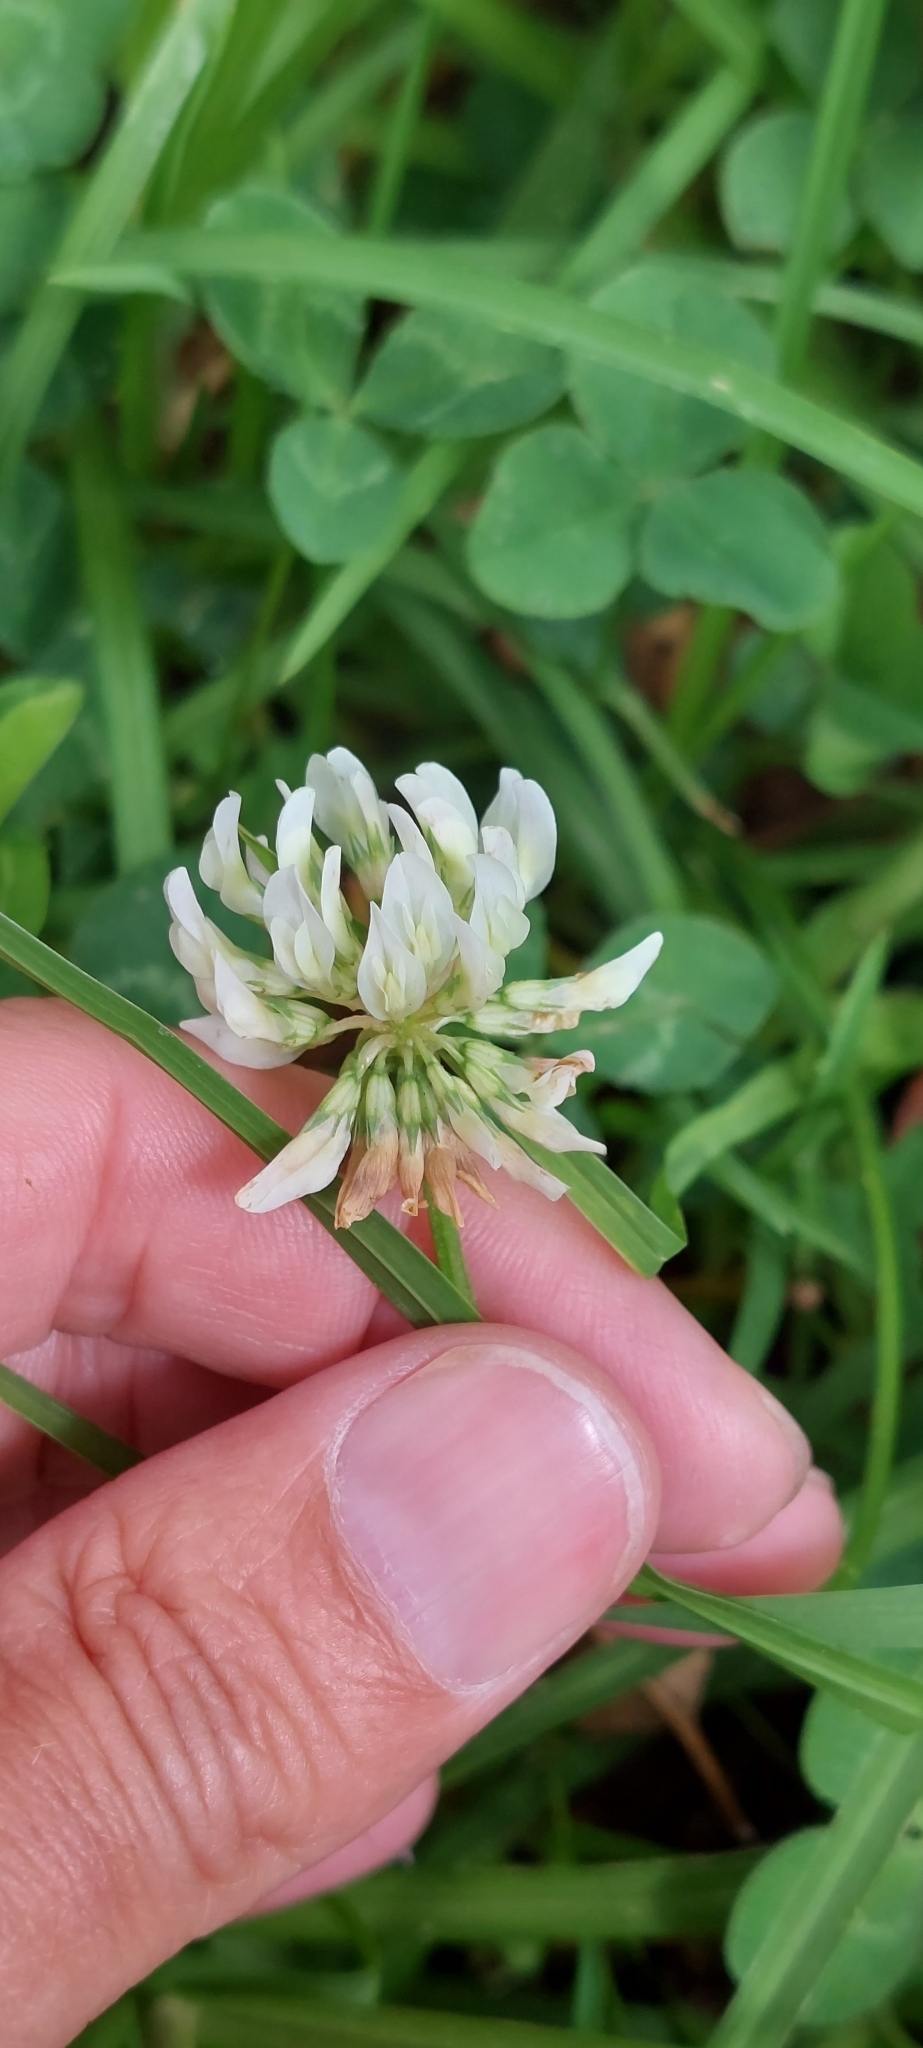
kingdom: Plantae
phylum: Tracheophyta
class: Magnoliopsida
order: Fabales
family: Fabaceae
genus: Trifolium
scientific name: Trifolium repens
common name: White clover
